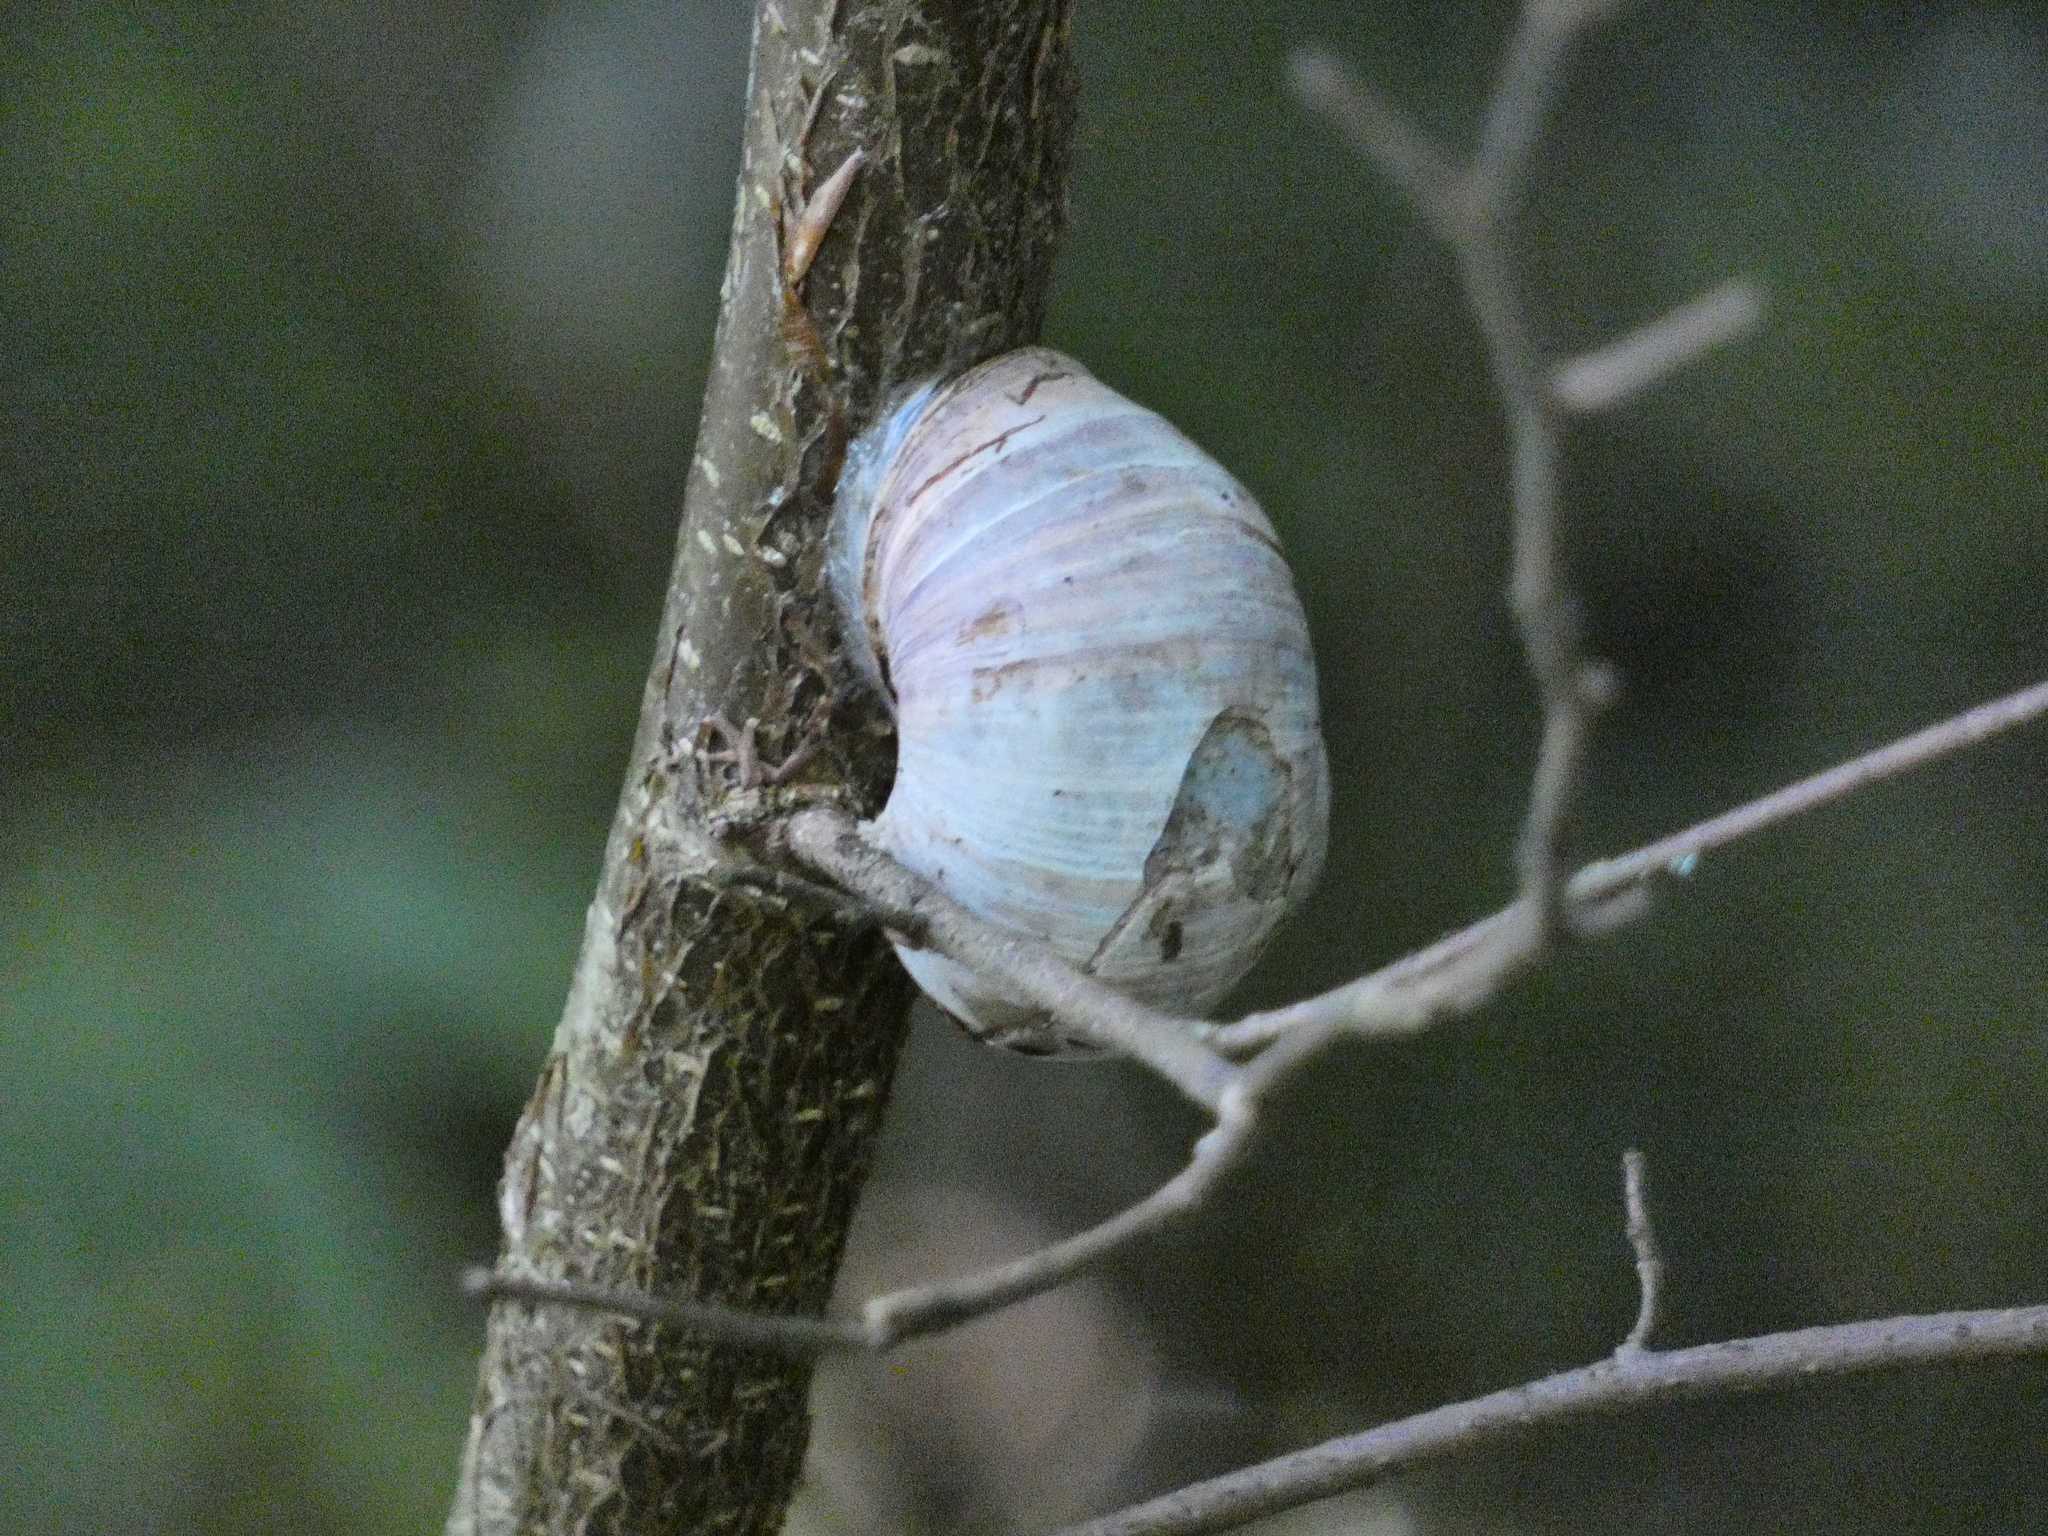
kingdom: Animalia
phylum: Mollusca
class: Gastropoda
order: Stylommatophora
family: Helicidae
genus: Helix
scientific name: Helix pomatia
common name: Roman snail
